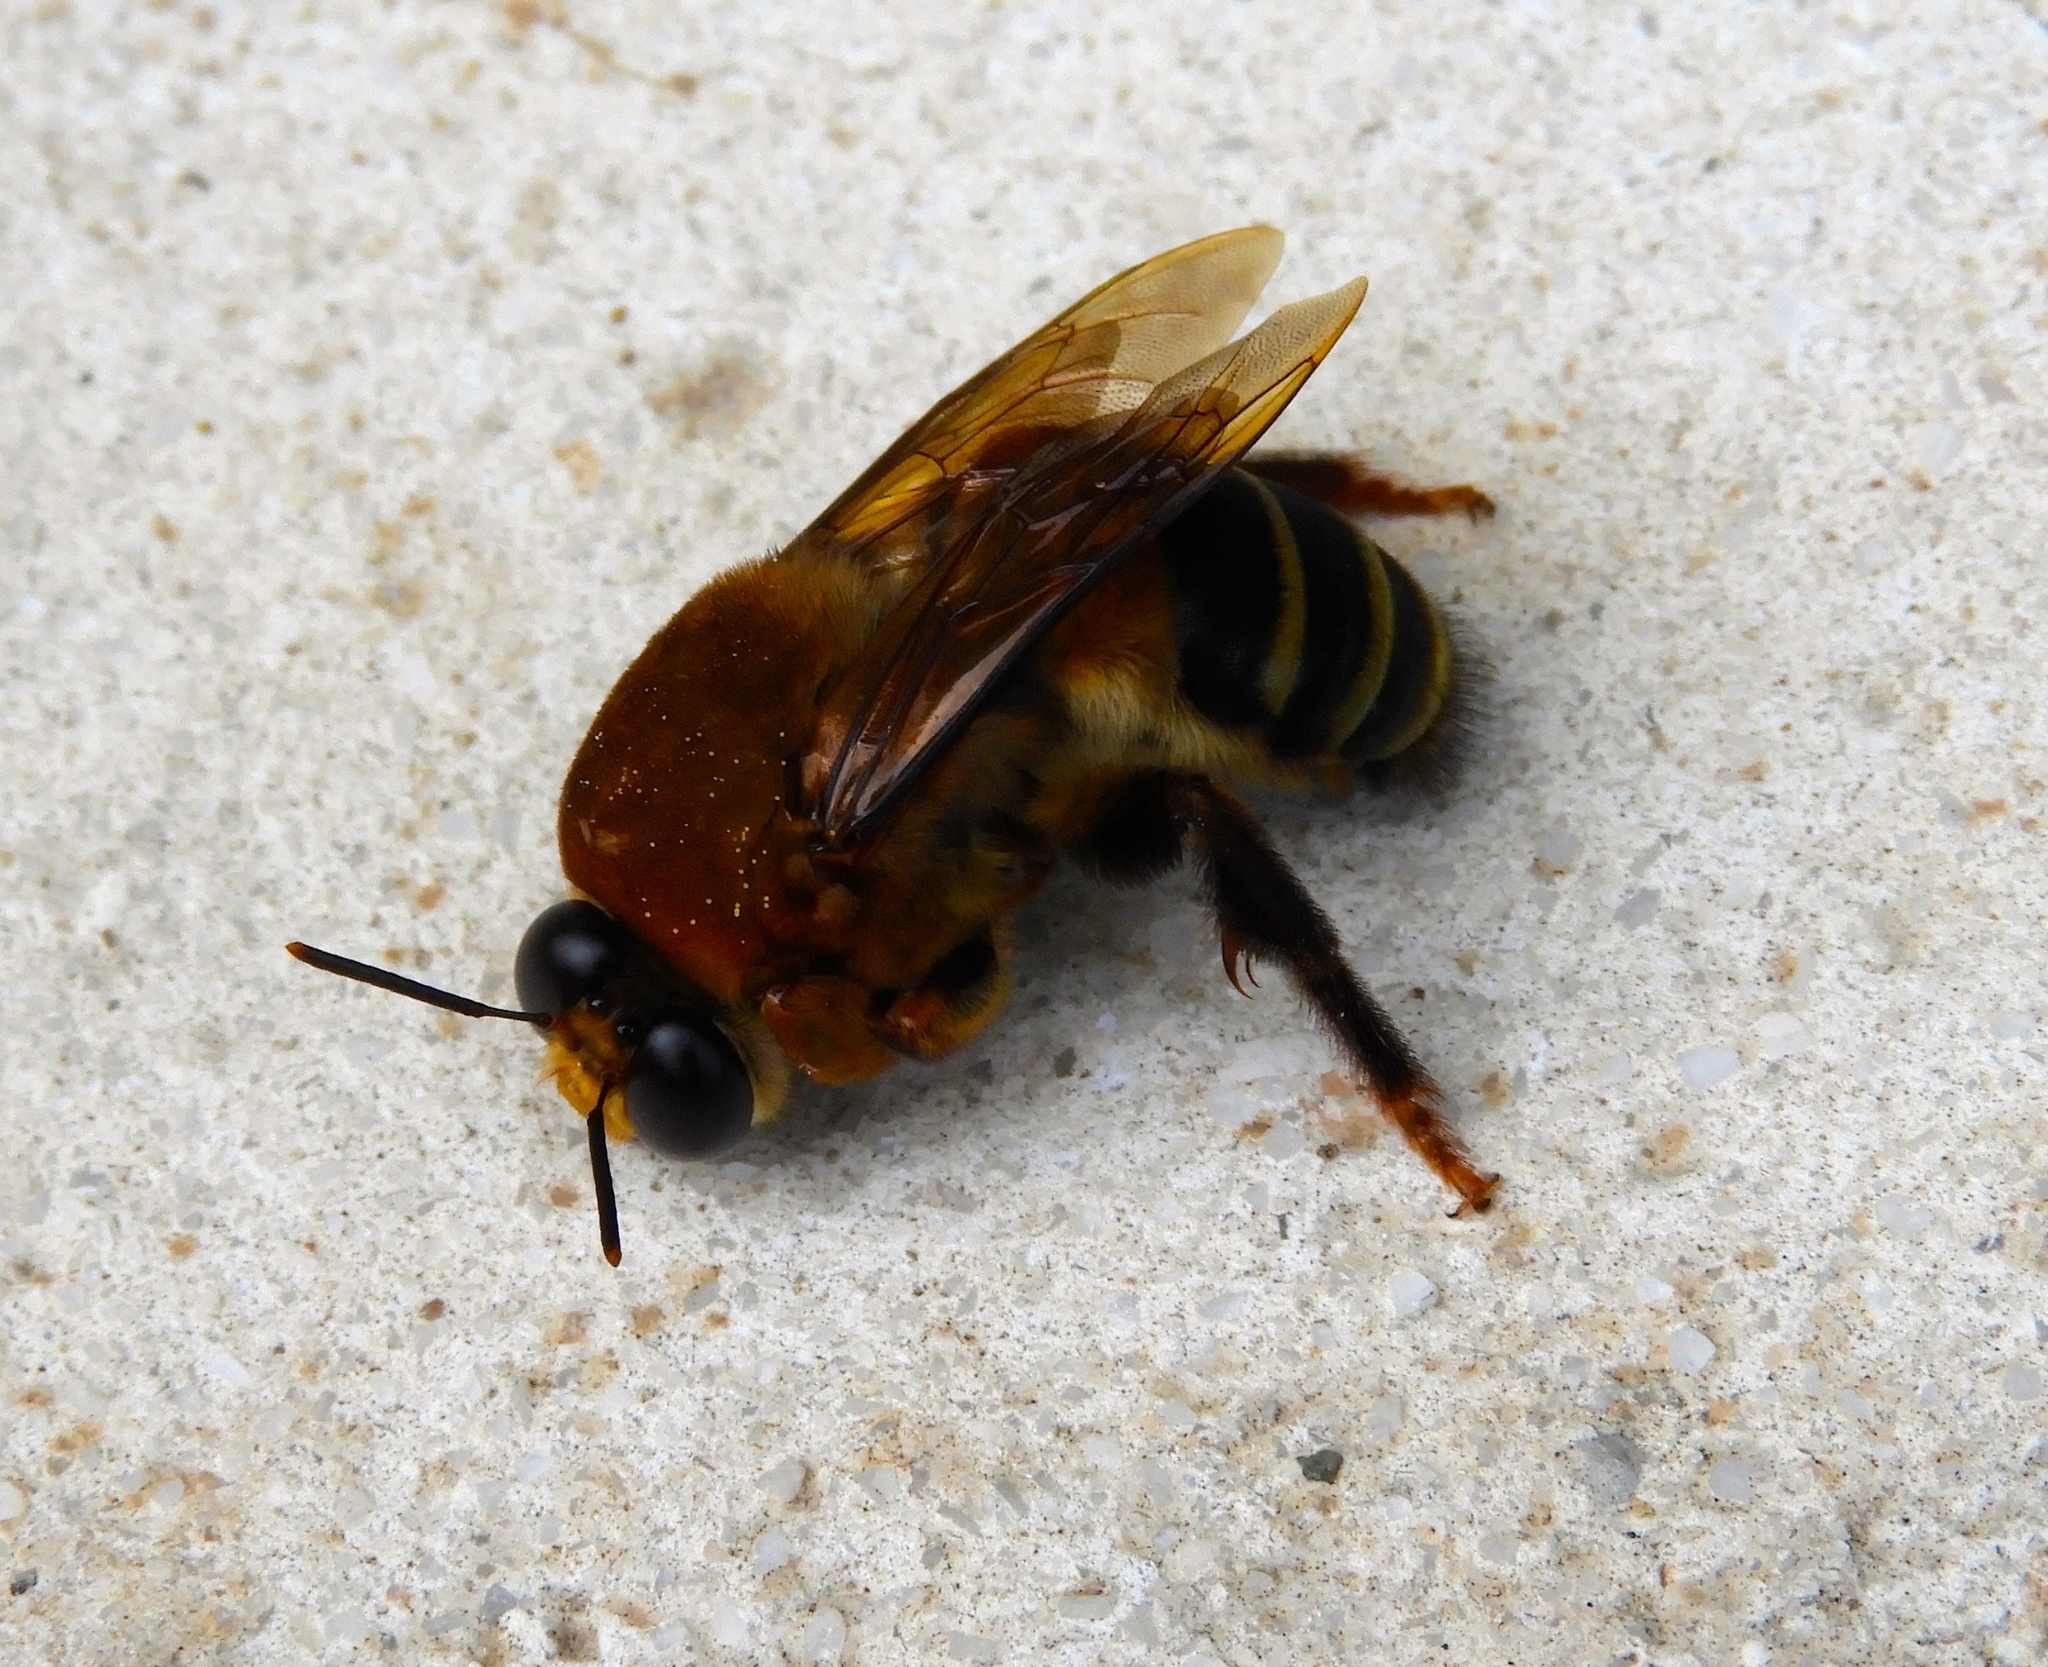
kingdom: Animalia
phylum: Arthropoda
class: Insecta
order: Hymenoptera
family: Colletidae
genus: Ptiloglossa
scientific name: Ptiloglossa
